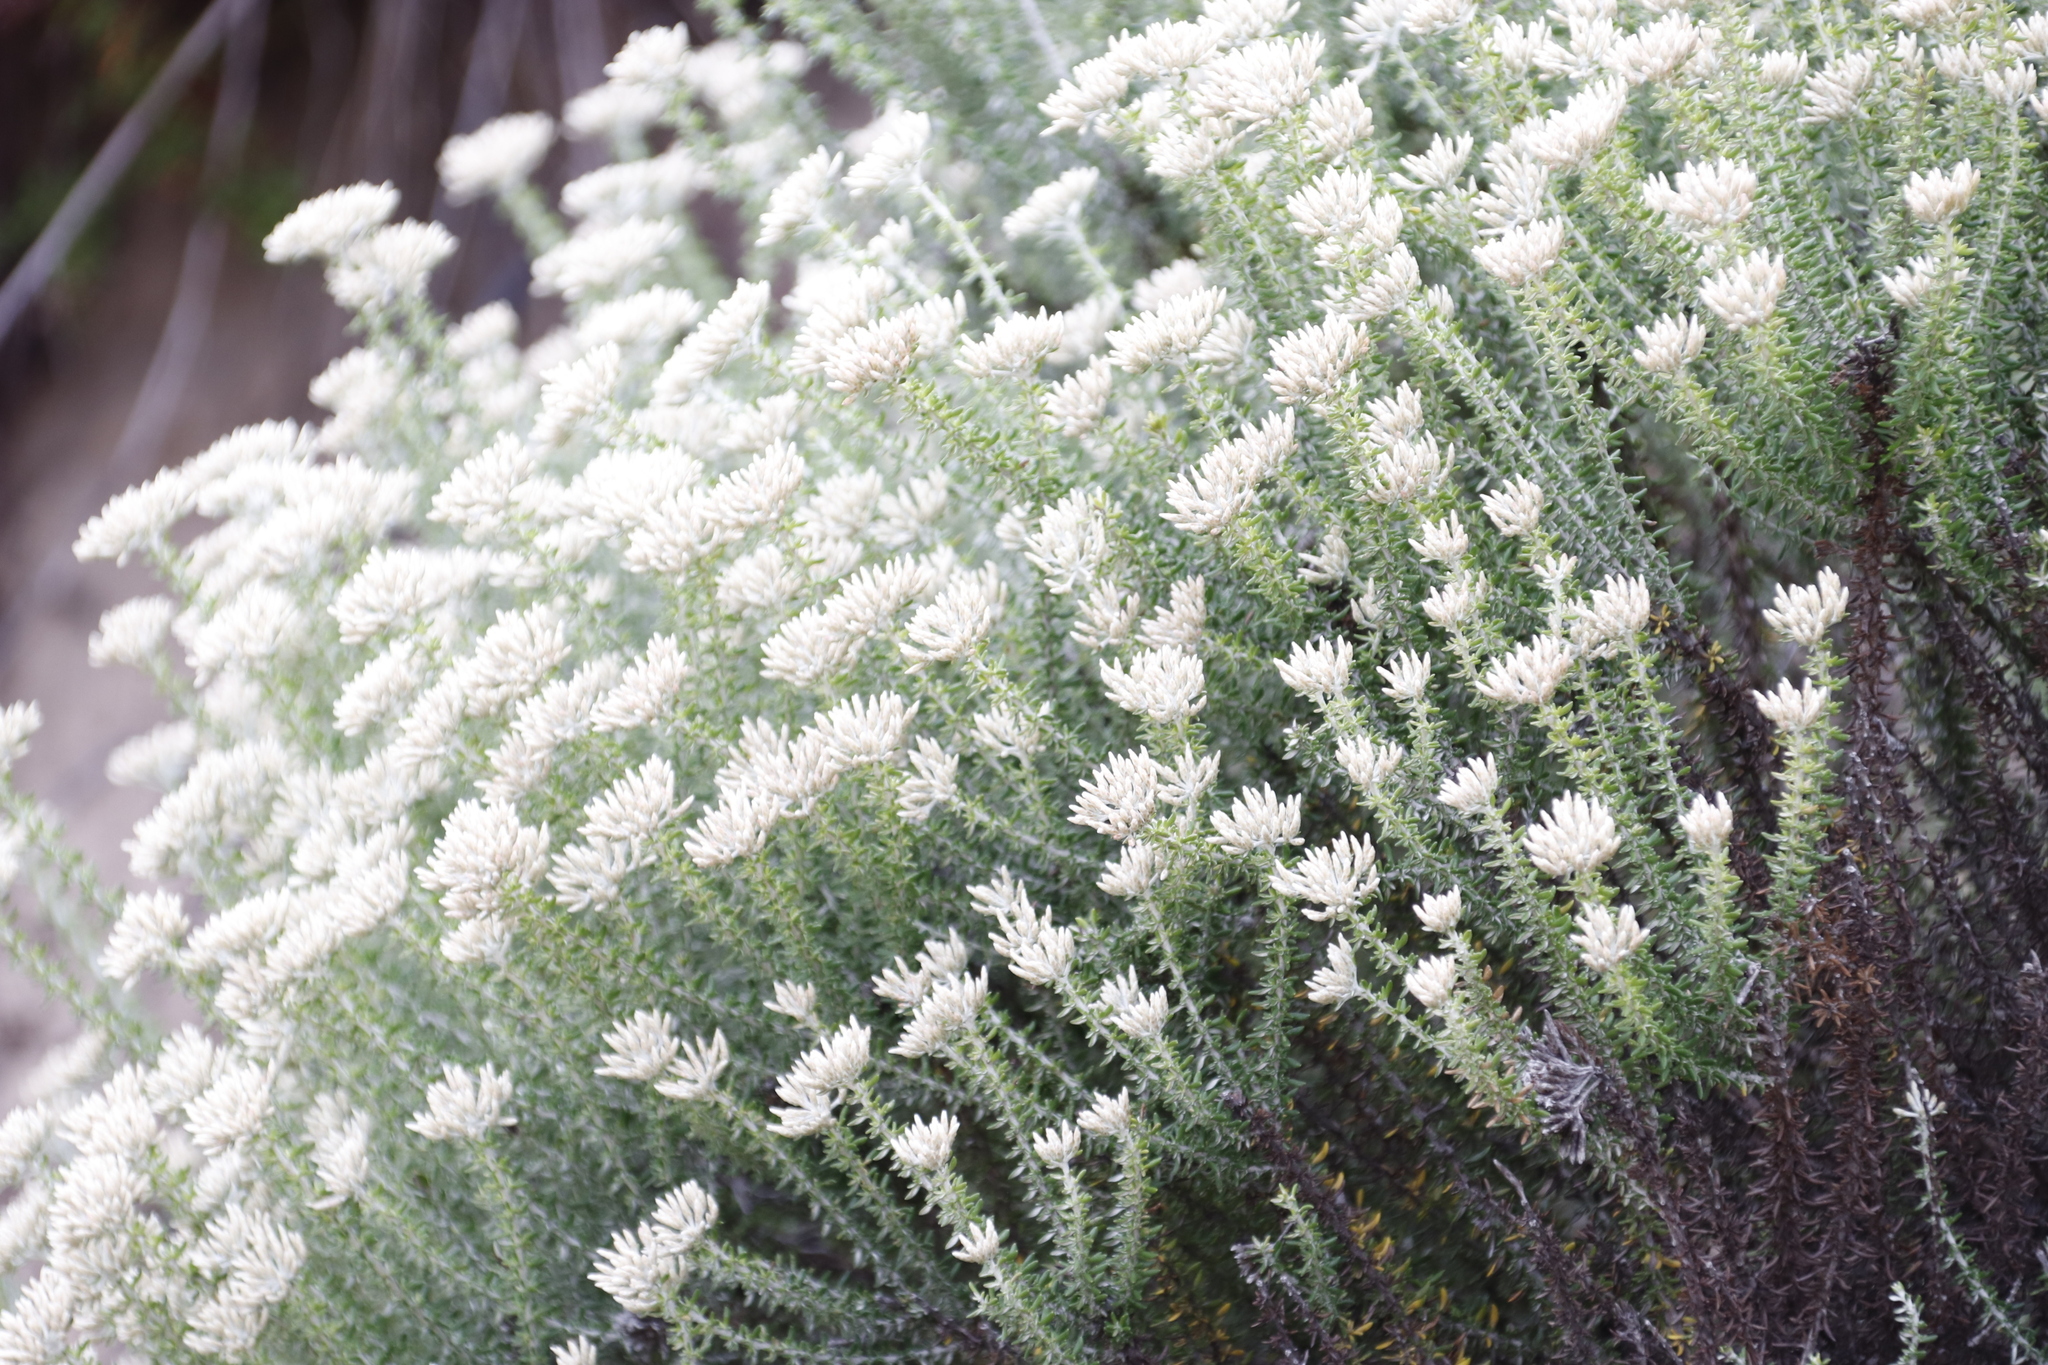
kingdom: Plantae
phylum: Tracheophyta
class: Magnoliopsida
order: Asterales
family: Asteraceae
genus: Metalasia
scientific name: Metalasia muricata
